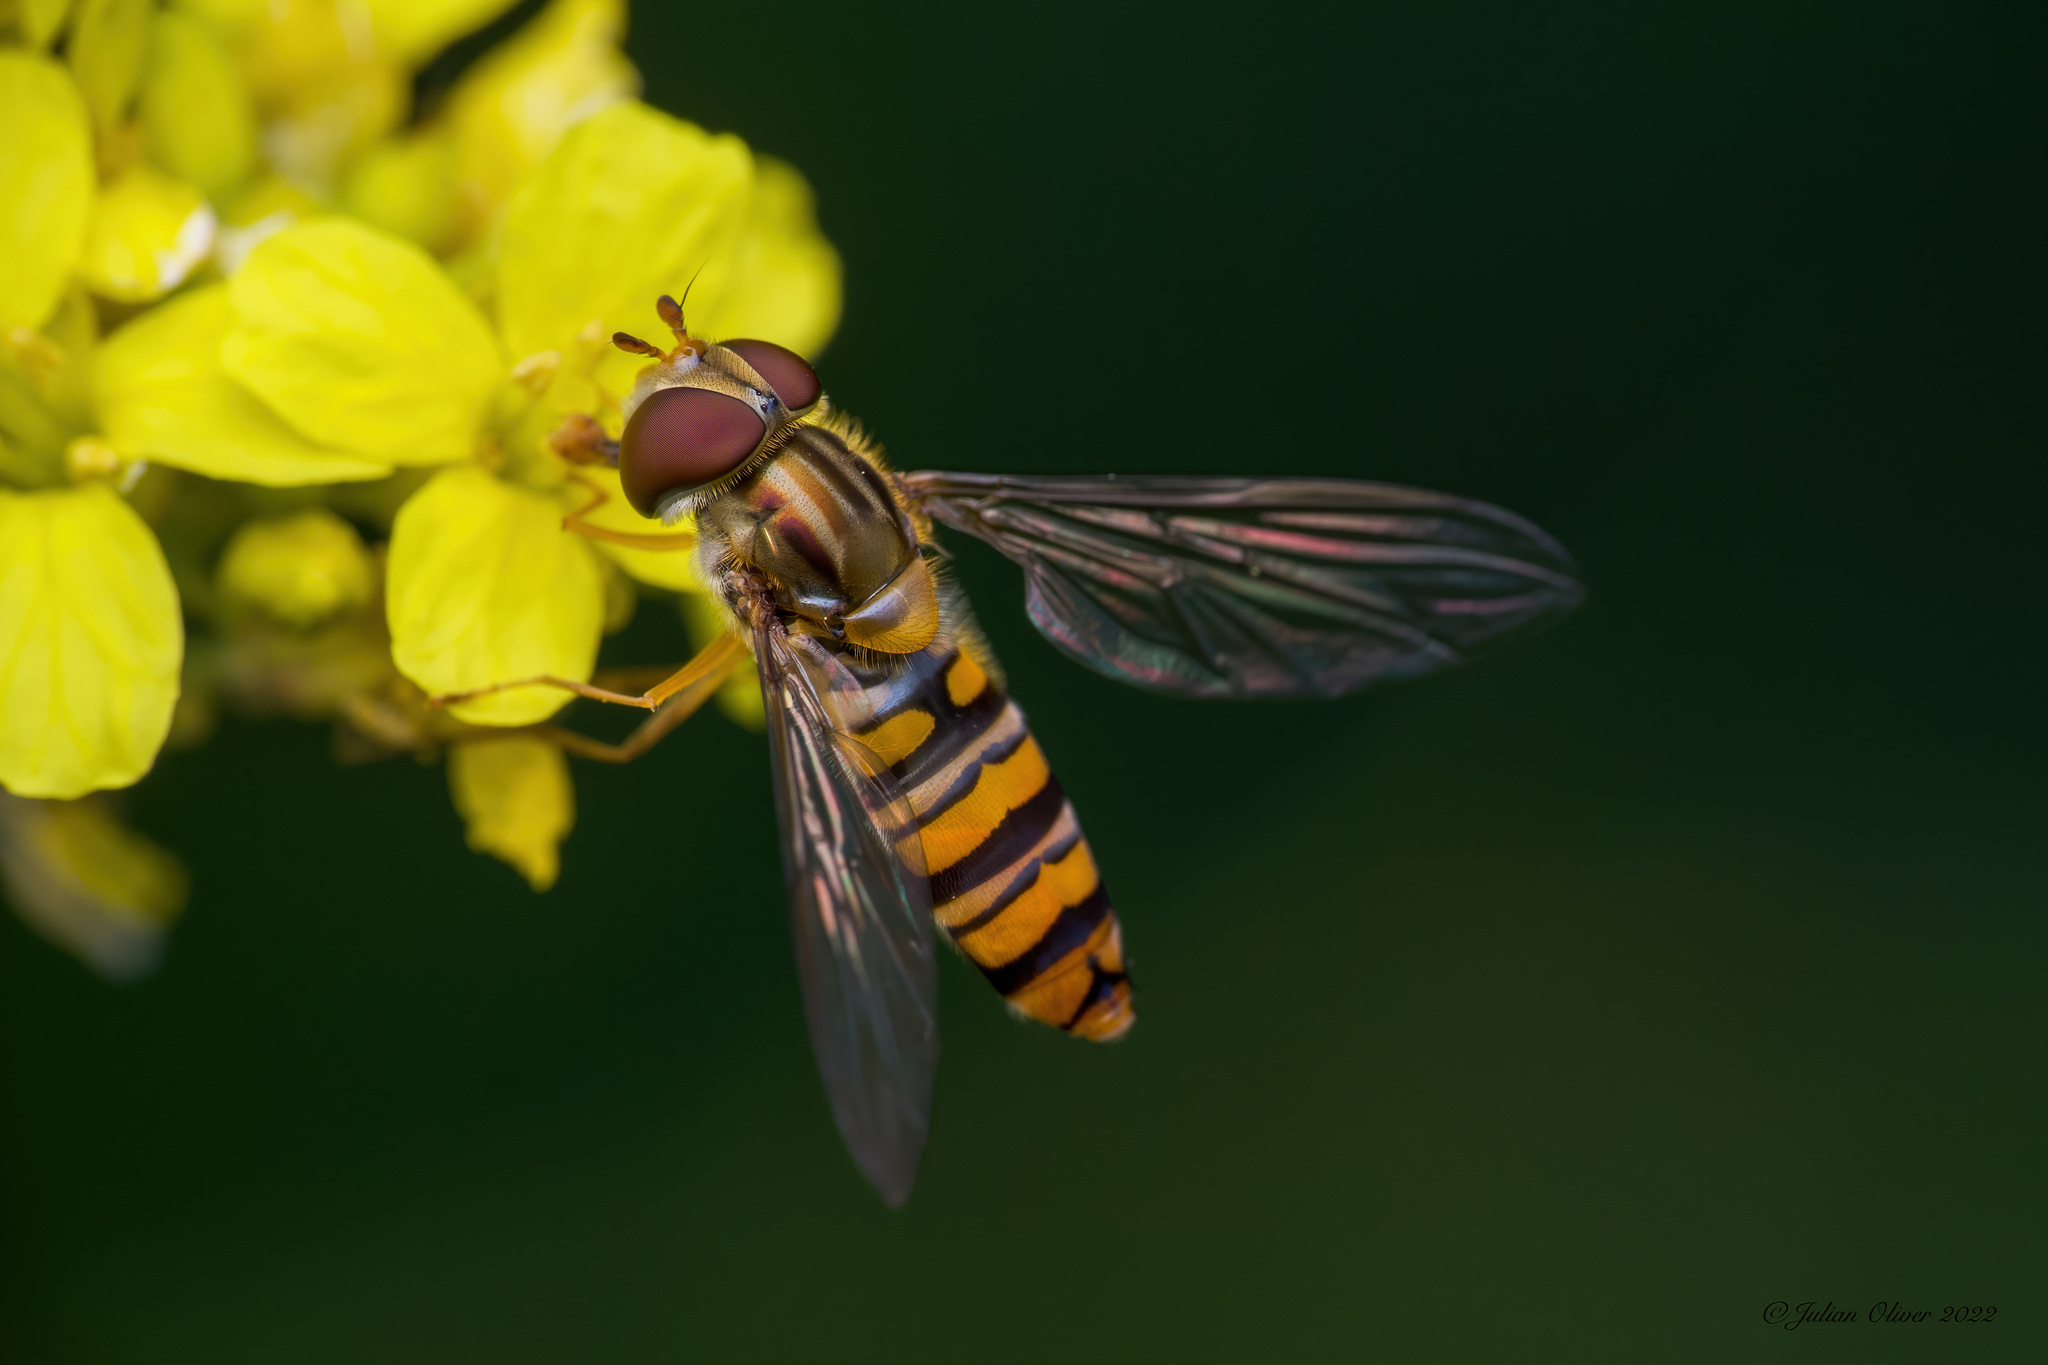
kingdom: Animalia
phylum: Arthropoda
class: Insecta
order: Diptera
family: Syrphidae
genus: Episyrphus
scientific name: Episyrphus balteatus
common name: Marmalade hoverfly
